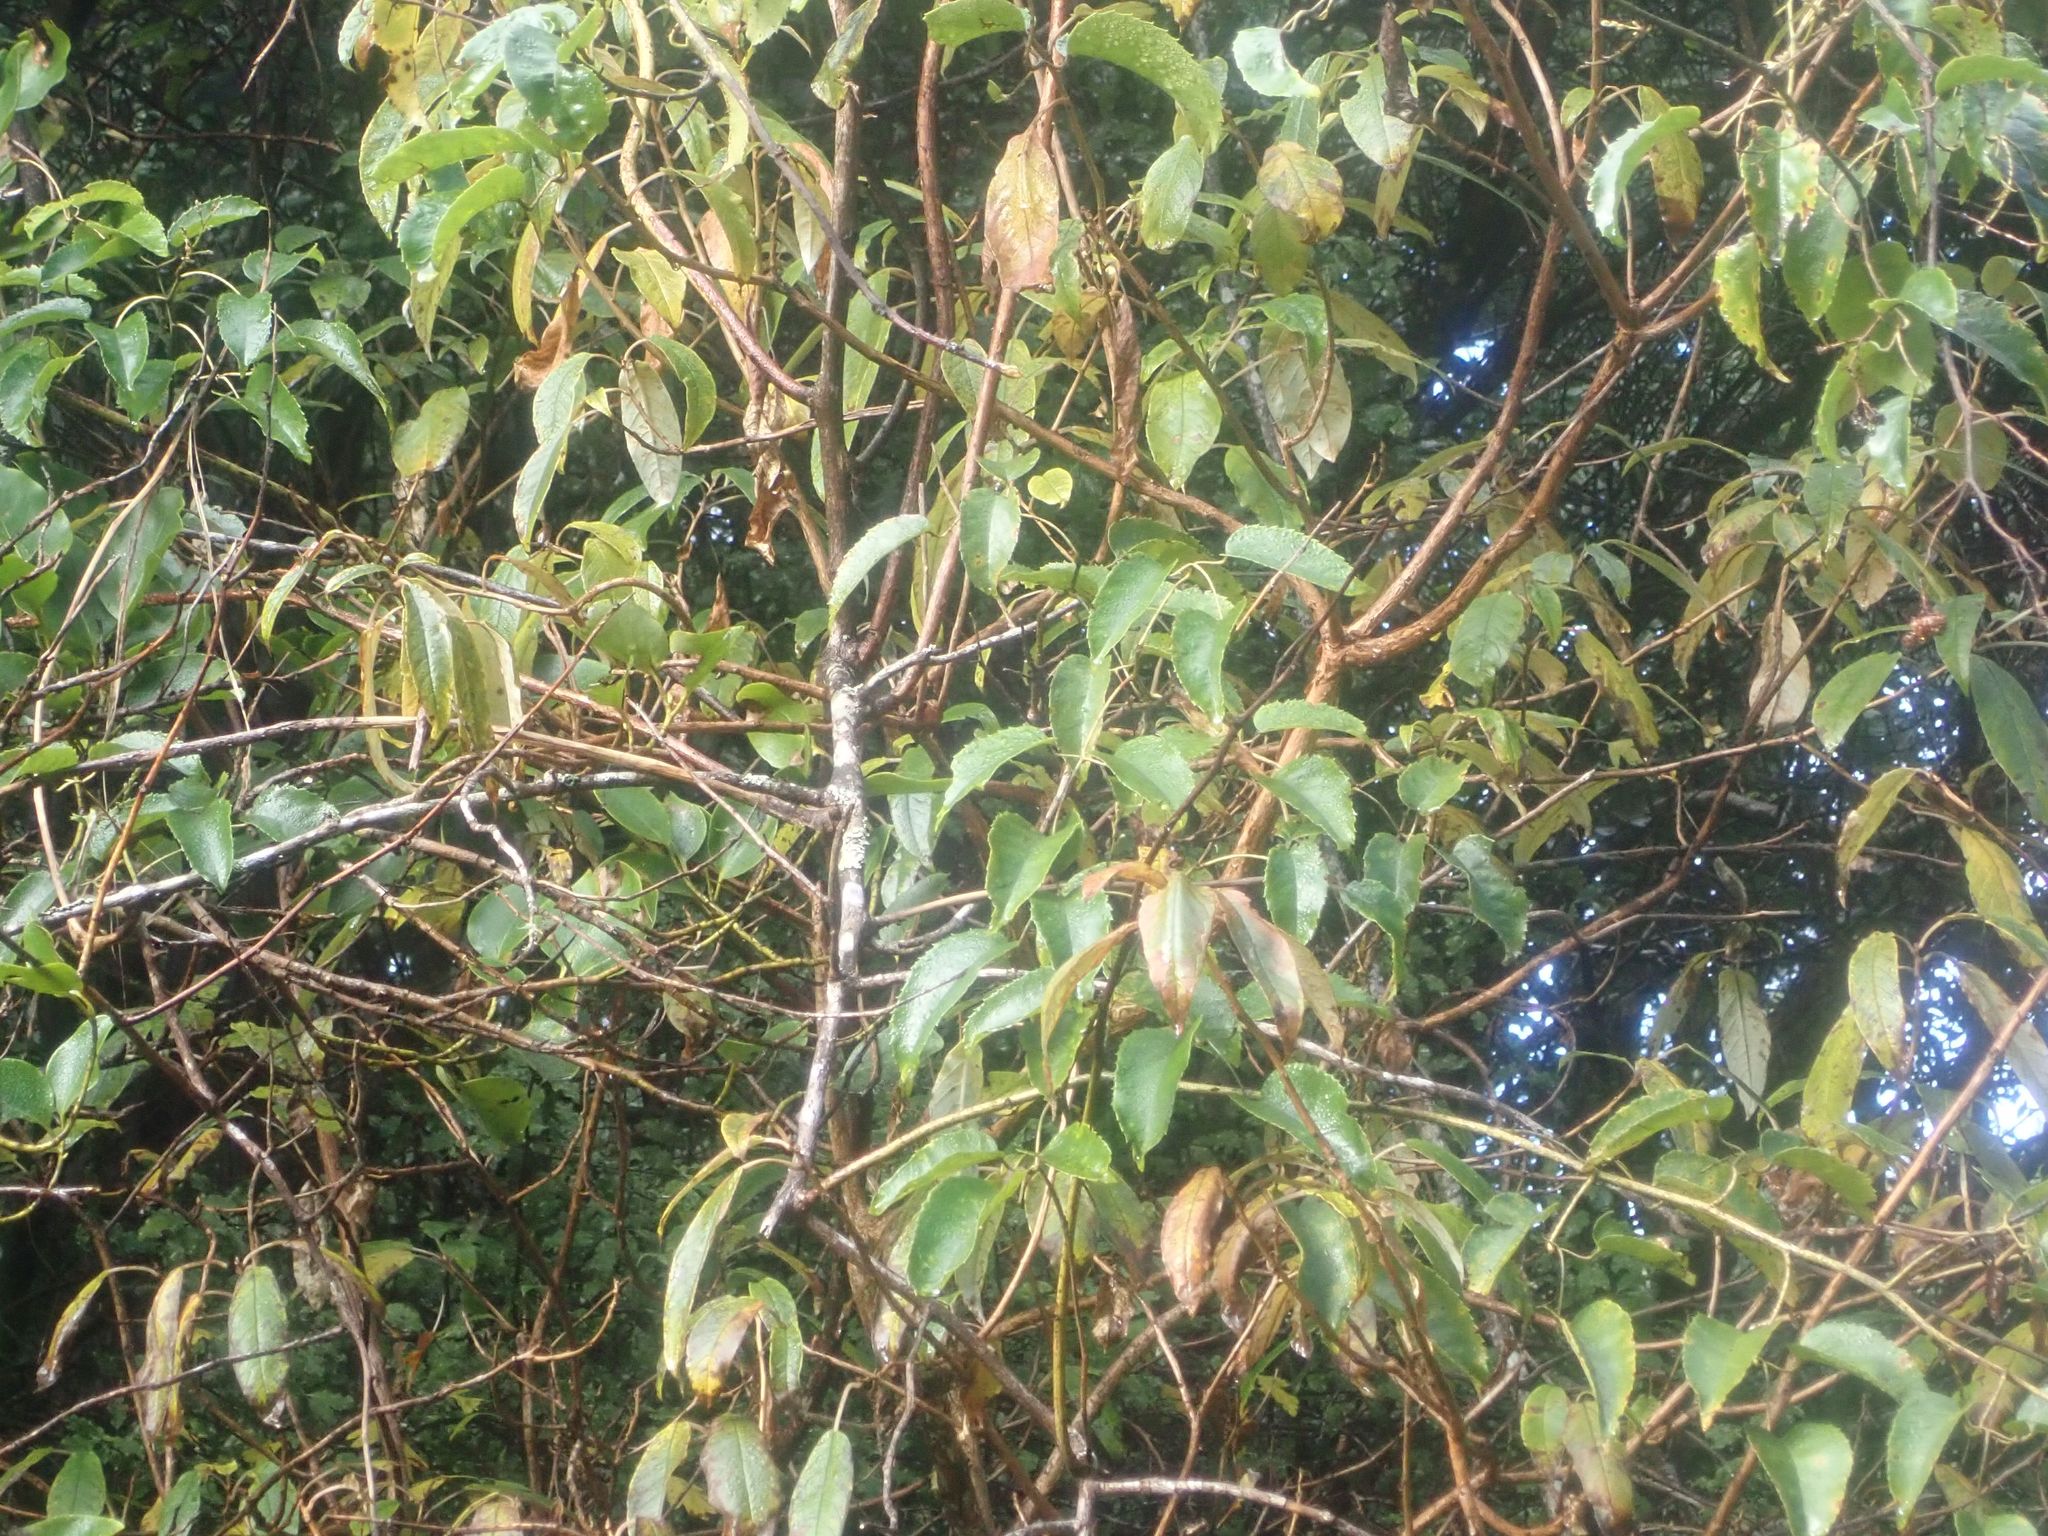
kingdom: Plantae
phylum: Tracheophyta
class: Magnoliopsida
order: Rosales
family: Rosaceae
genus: Rubus
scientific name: Rubus cissoides
